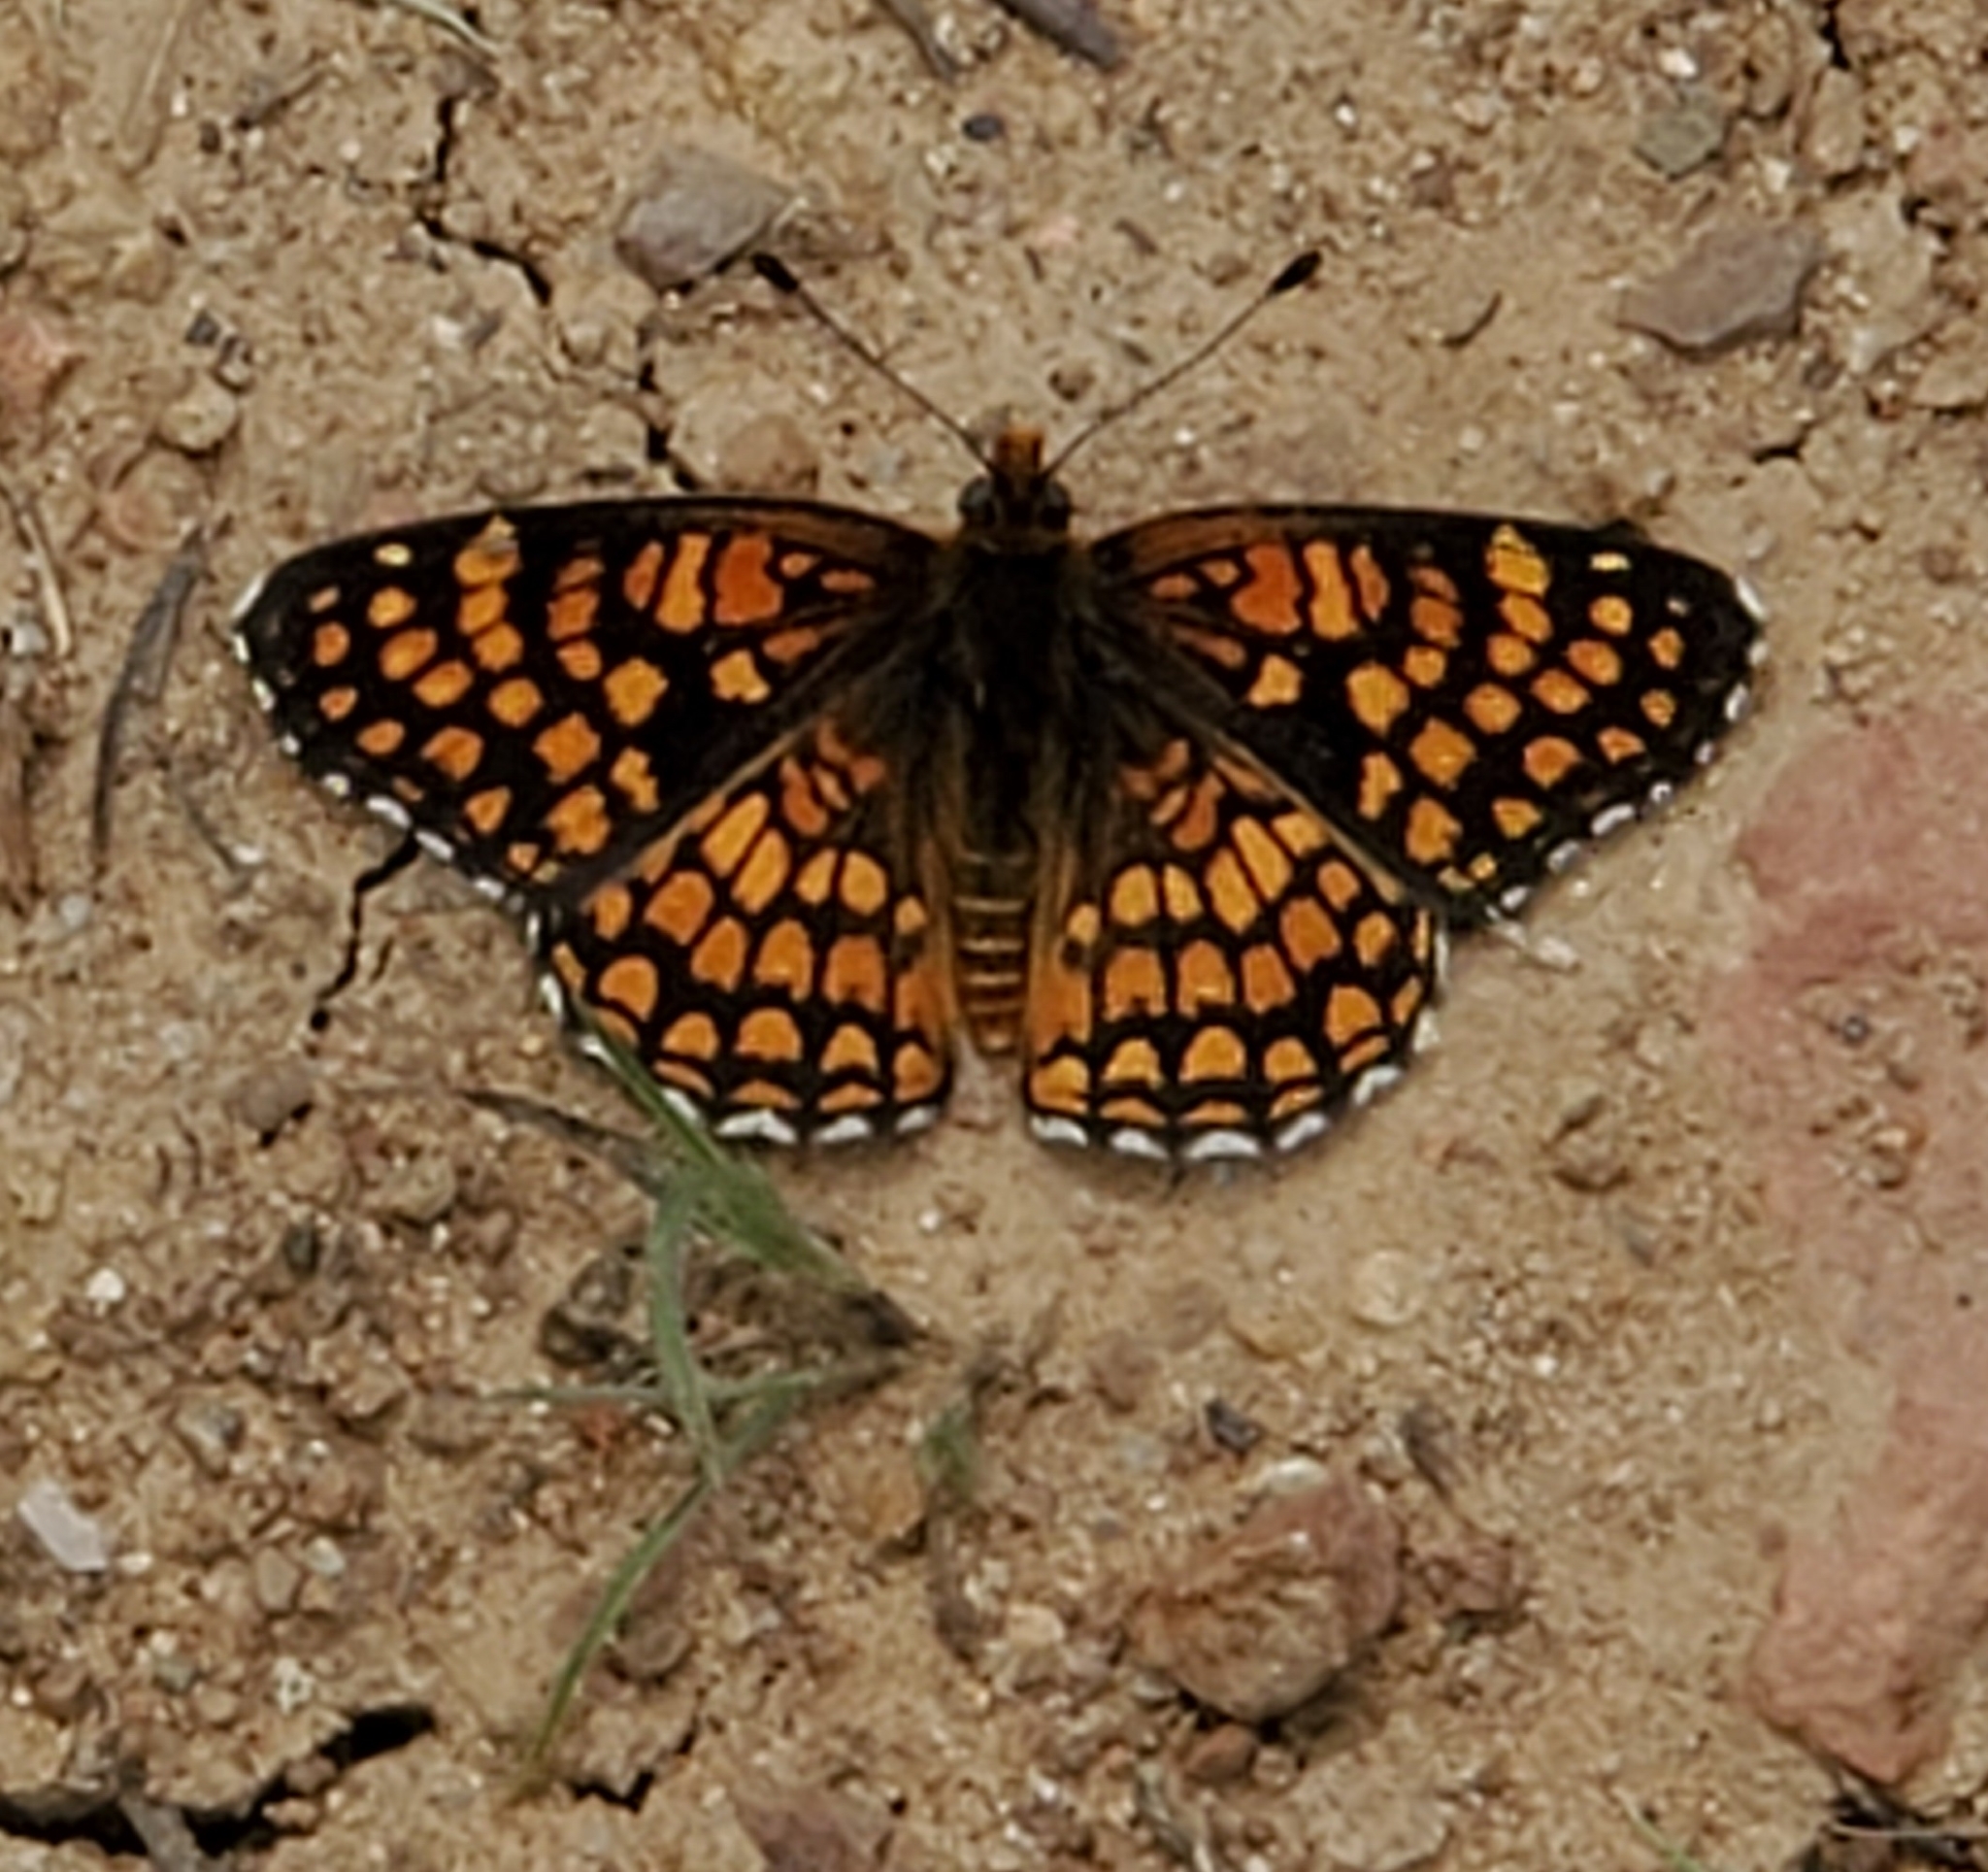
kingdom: Animalia
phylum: Arthropoda
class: Insecta
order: Lepidoptera
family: Nymphalidae
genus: Chlosyne
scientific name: Chlosyne gabbii
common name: Gabb's checkerspot
